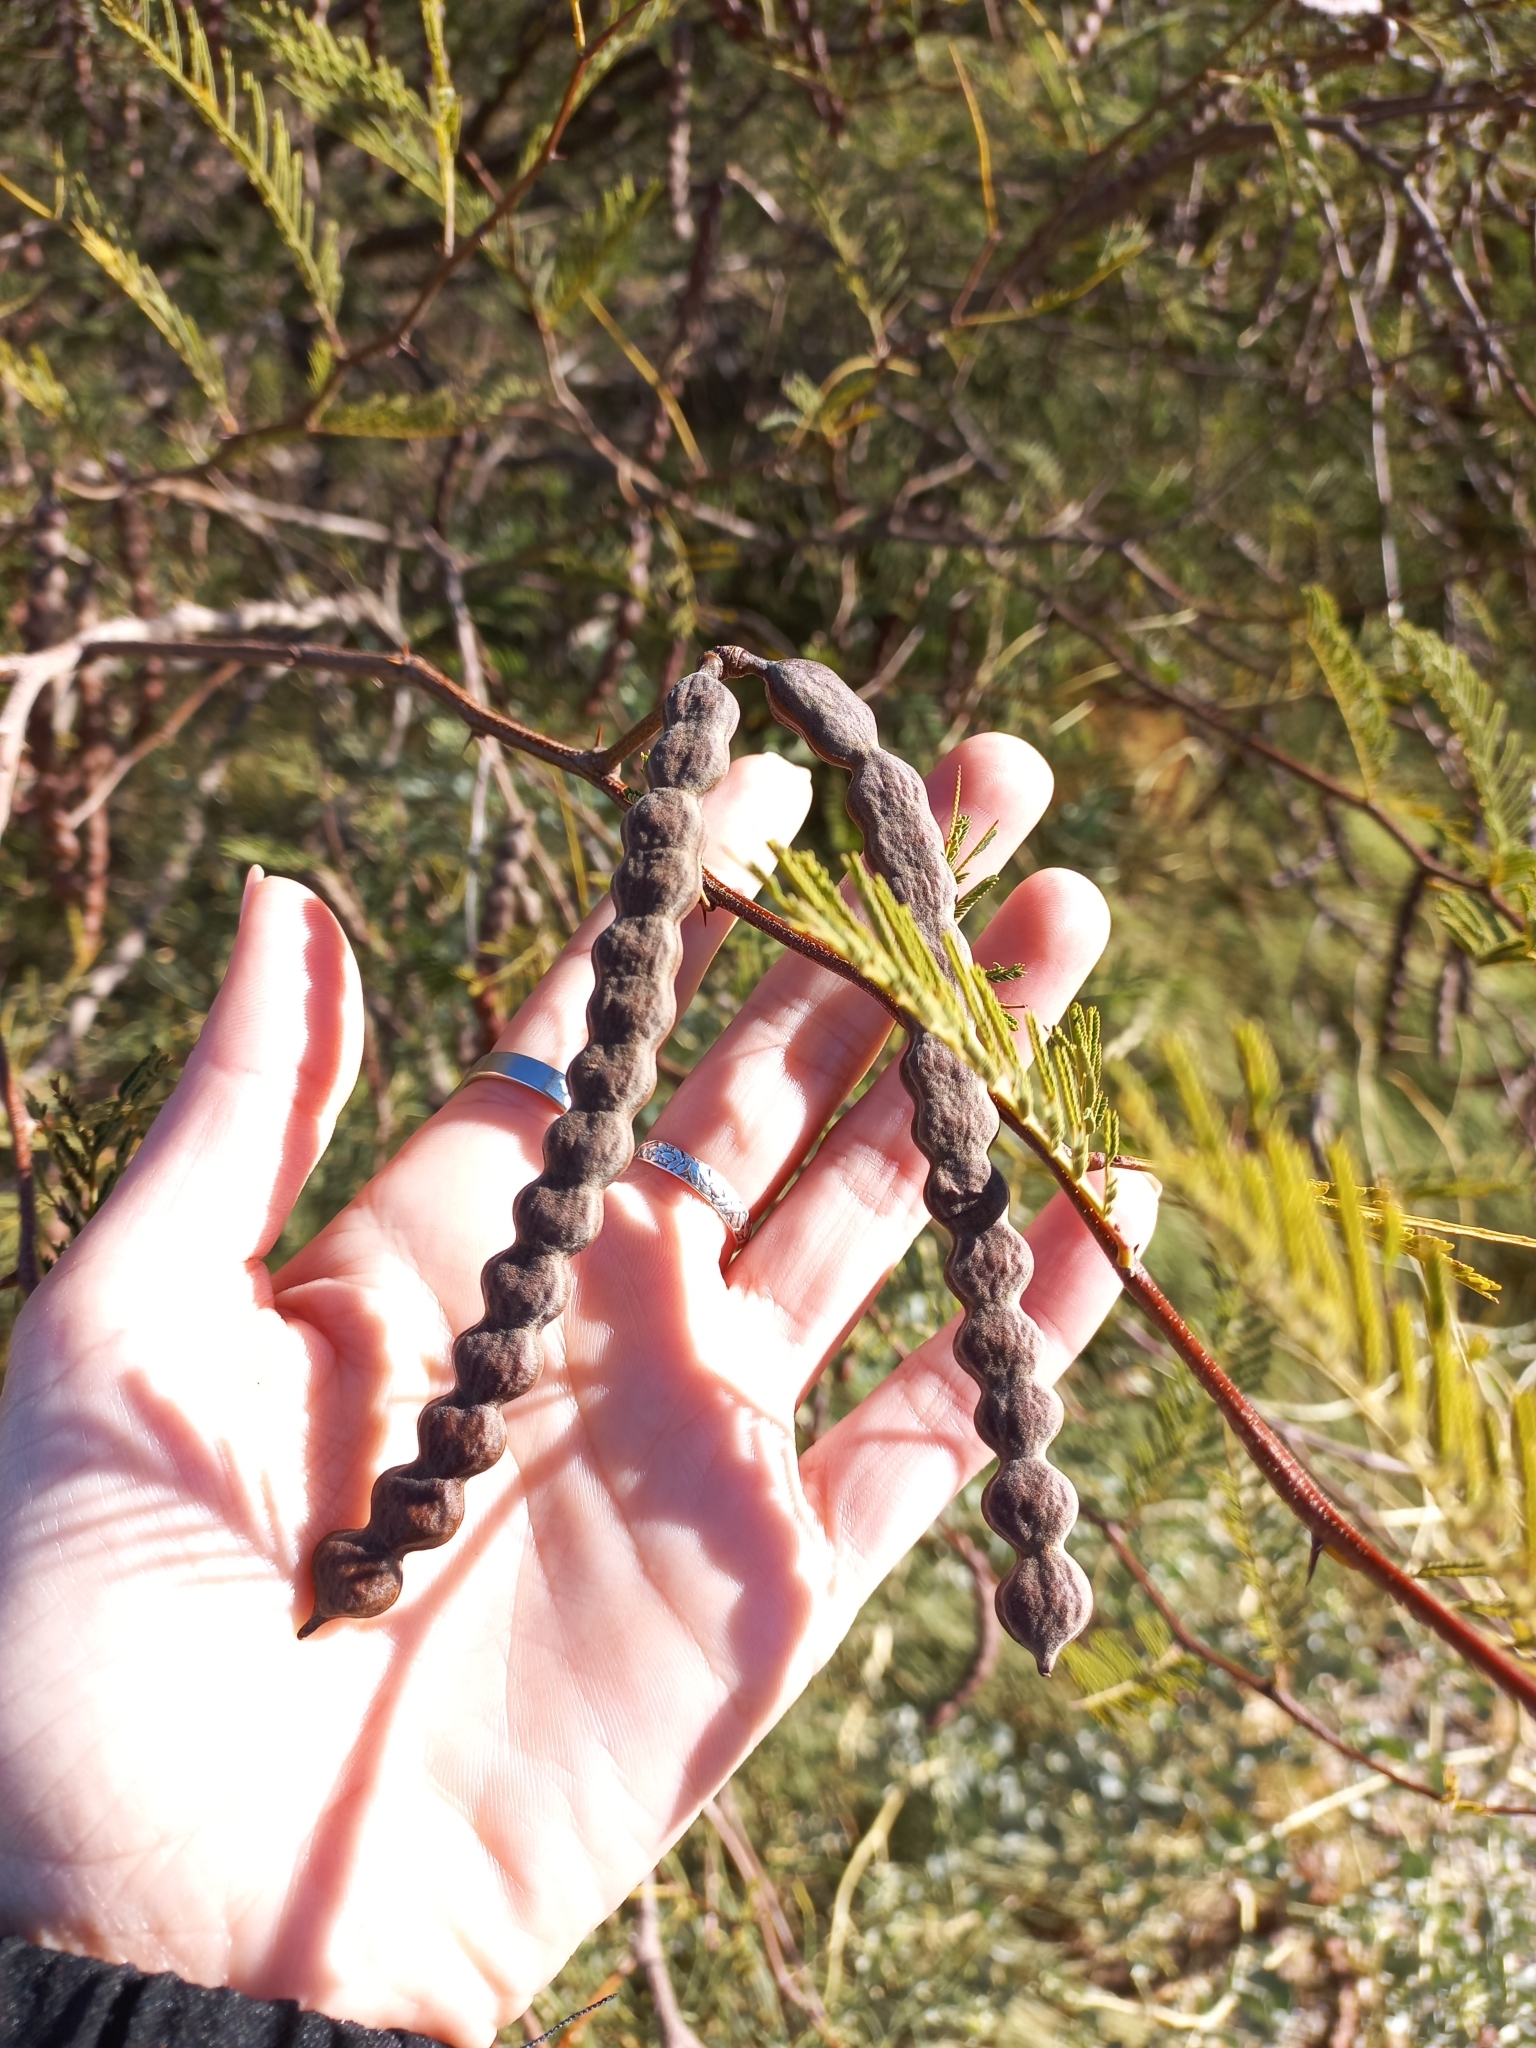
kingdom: Plantae
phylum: Tracheophyta
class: Magnoliopsida
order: Fabales
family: Fabaceae
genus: Vachellia
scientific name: Vachellia aroma
